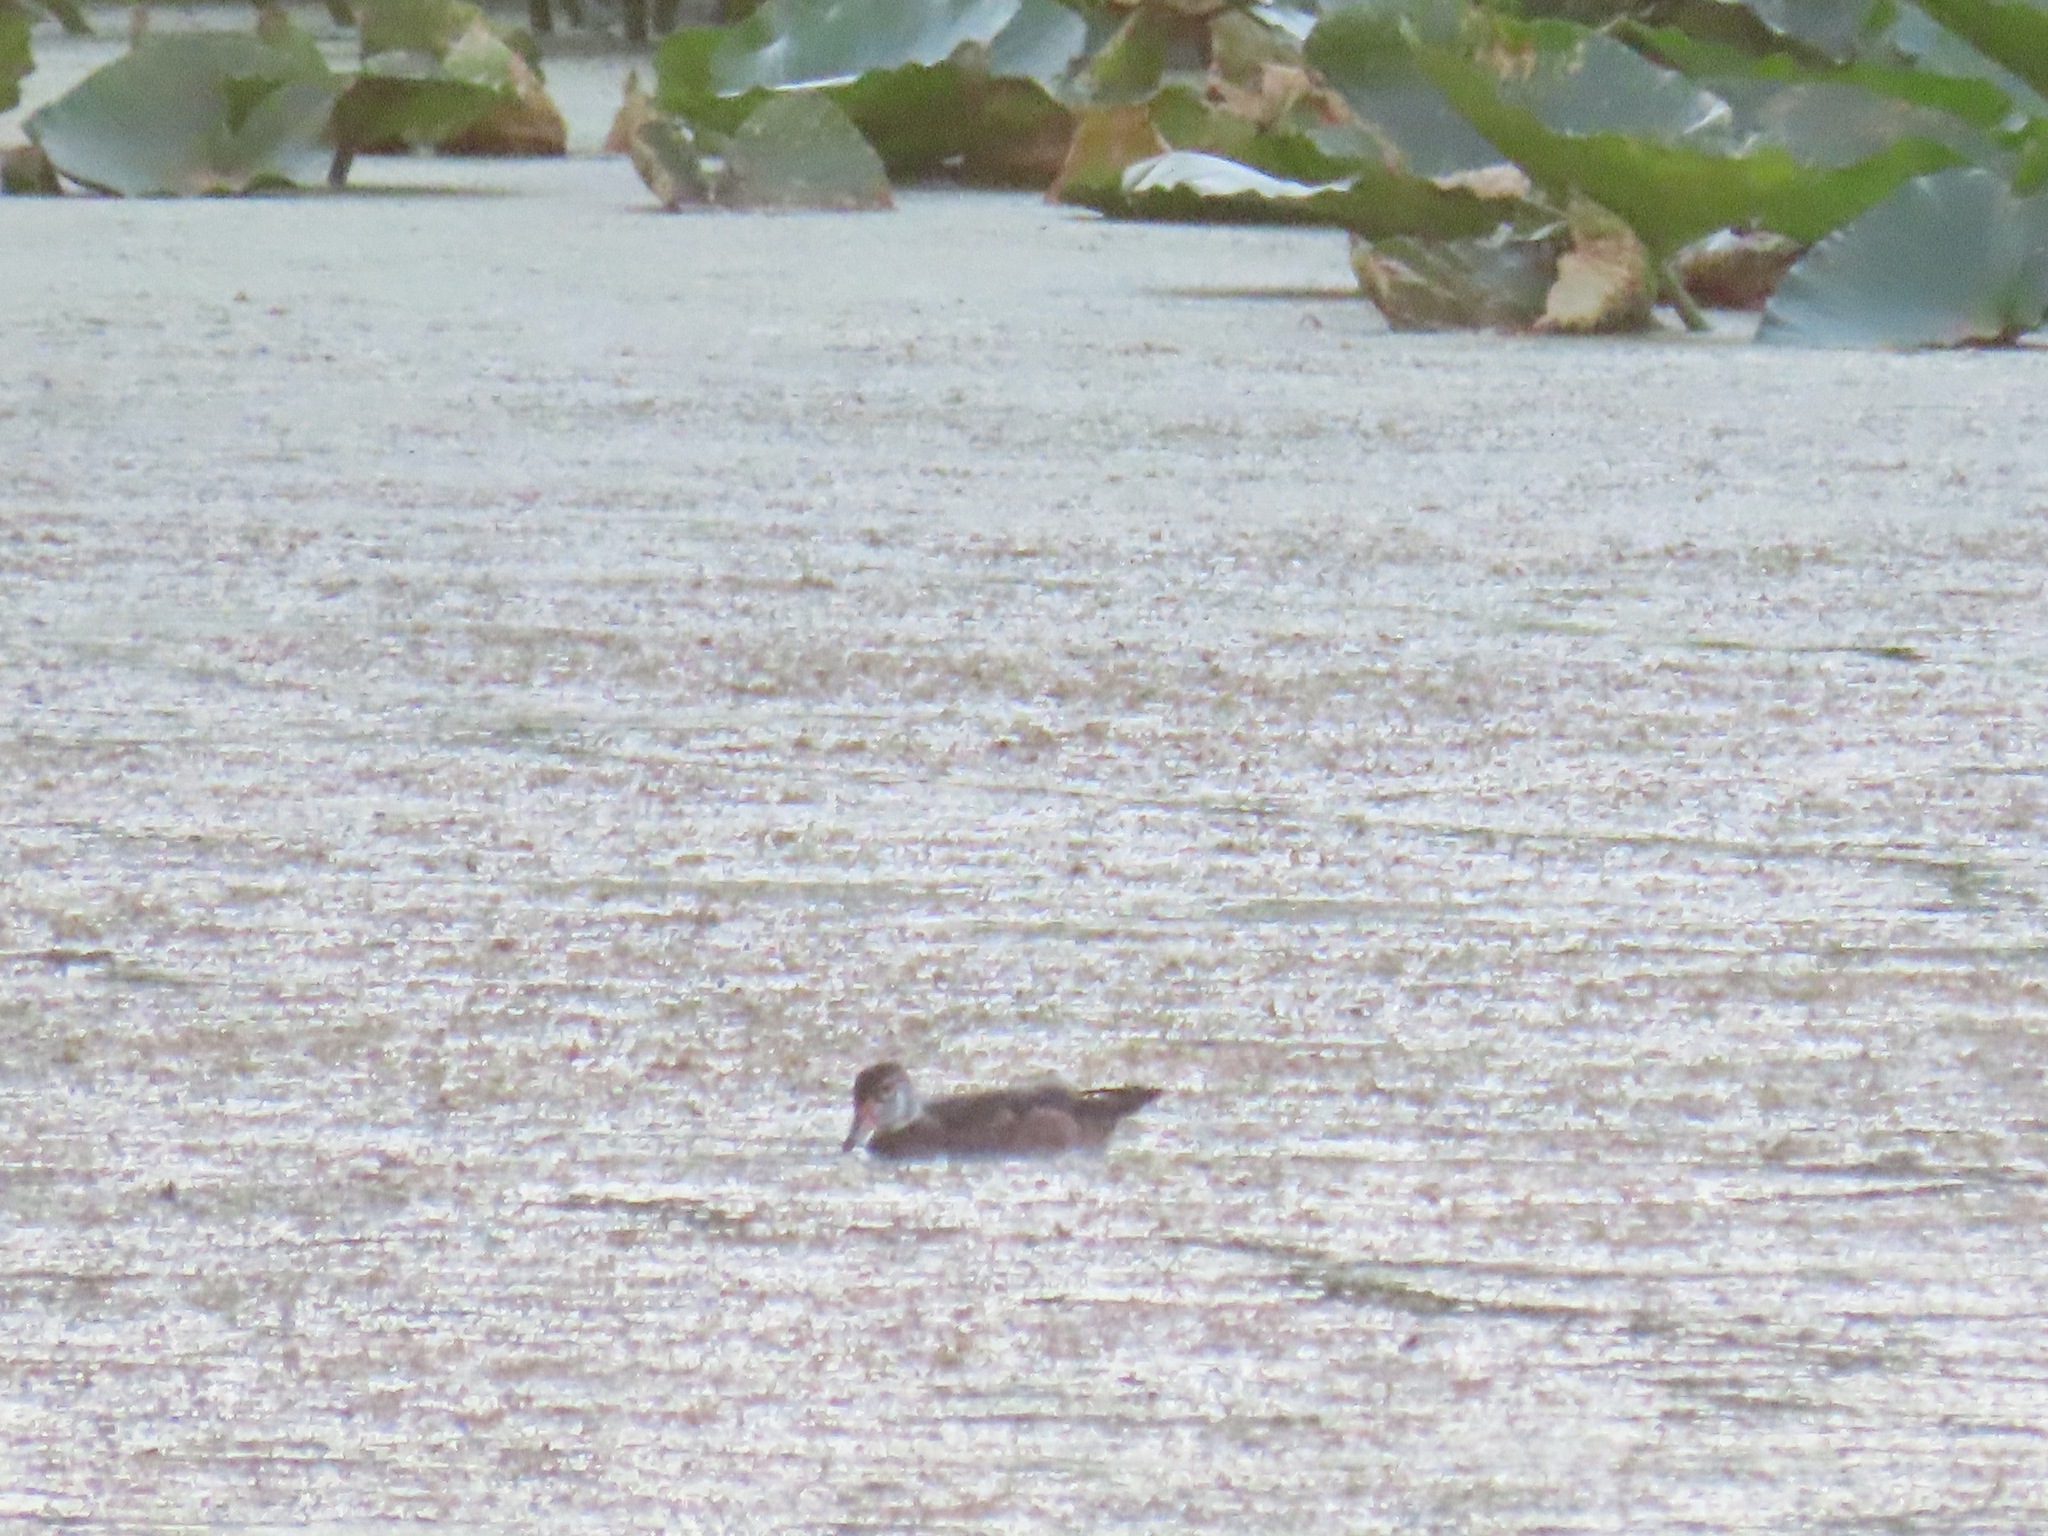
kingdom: Animalia
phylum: Chordata
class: Aves
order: Anseriformes
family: Anatidae
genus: Aix
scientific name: Aix sponsa
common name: Wood duck
